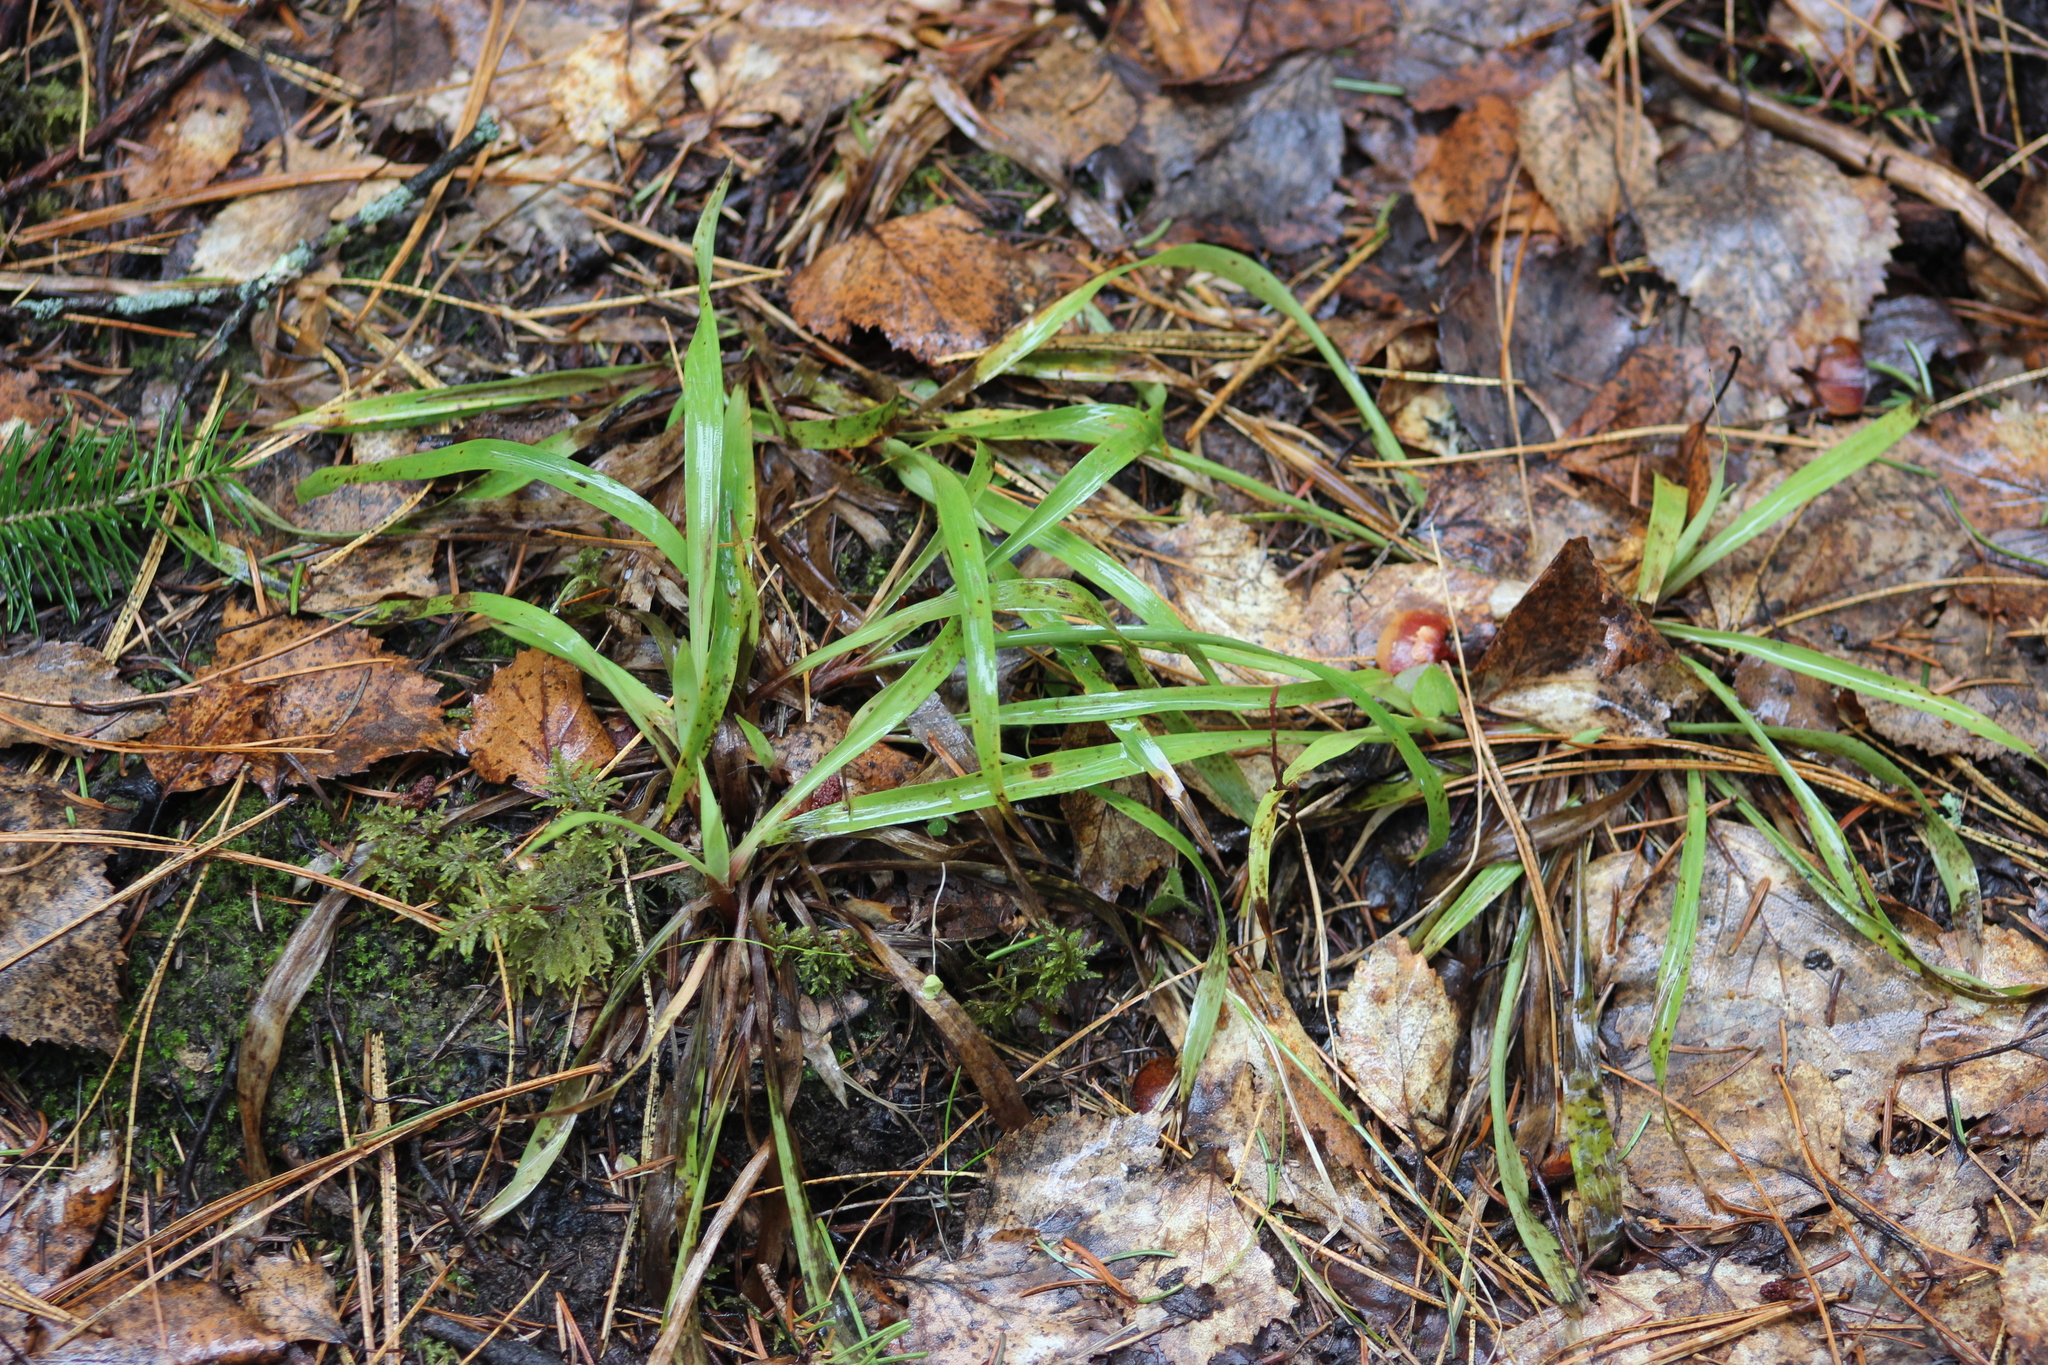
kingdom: Plantae
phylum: Tracheophyta
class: Liliopsida
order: Poales
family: Juncaceae
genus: Luzula
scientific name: Luzula pilosa
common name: Hairy wood-rush
